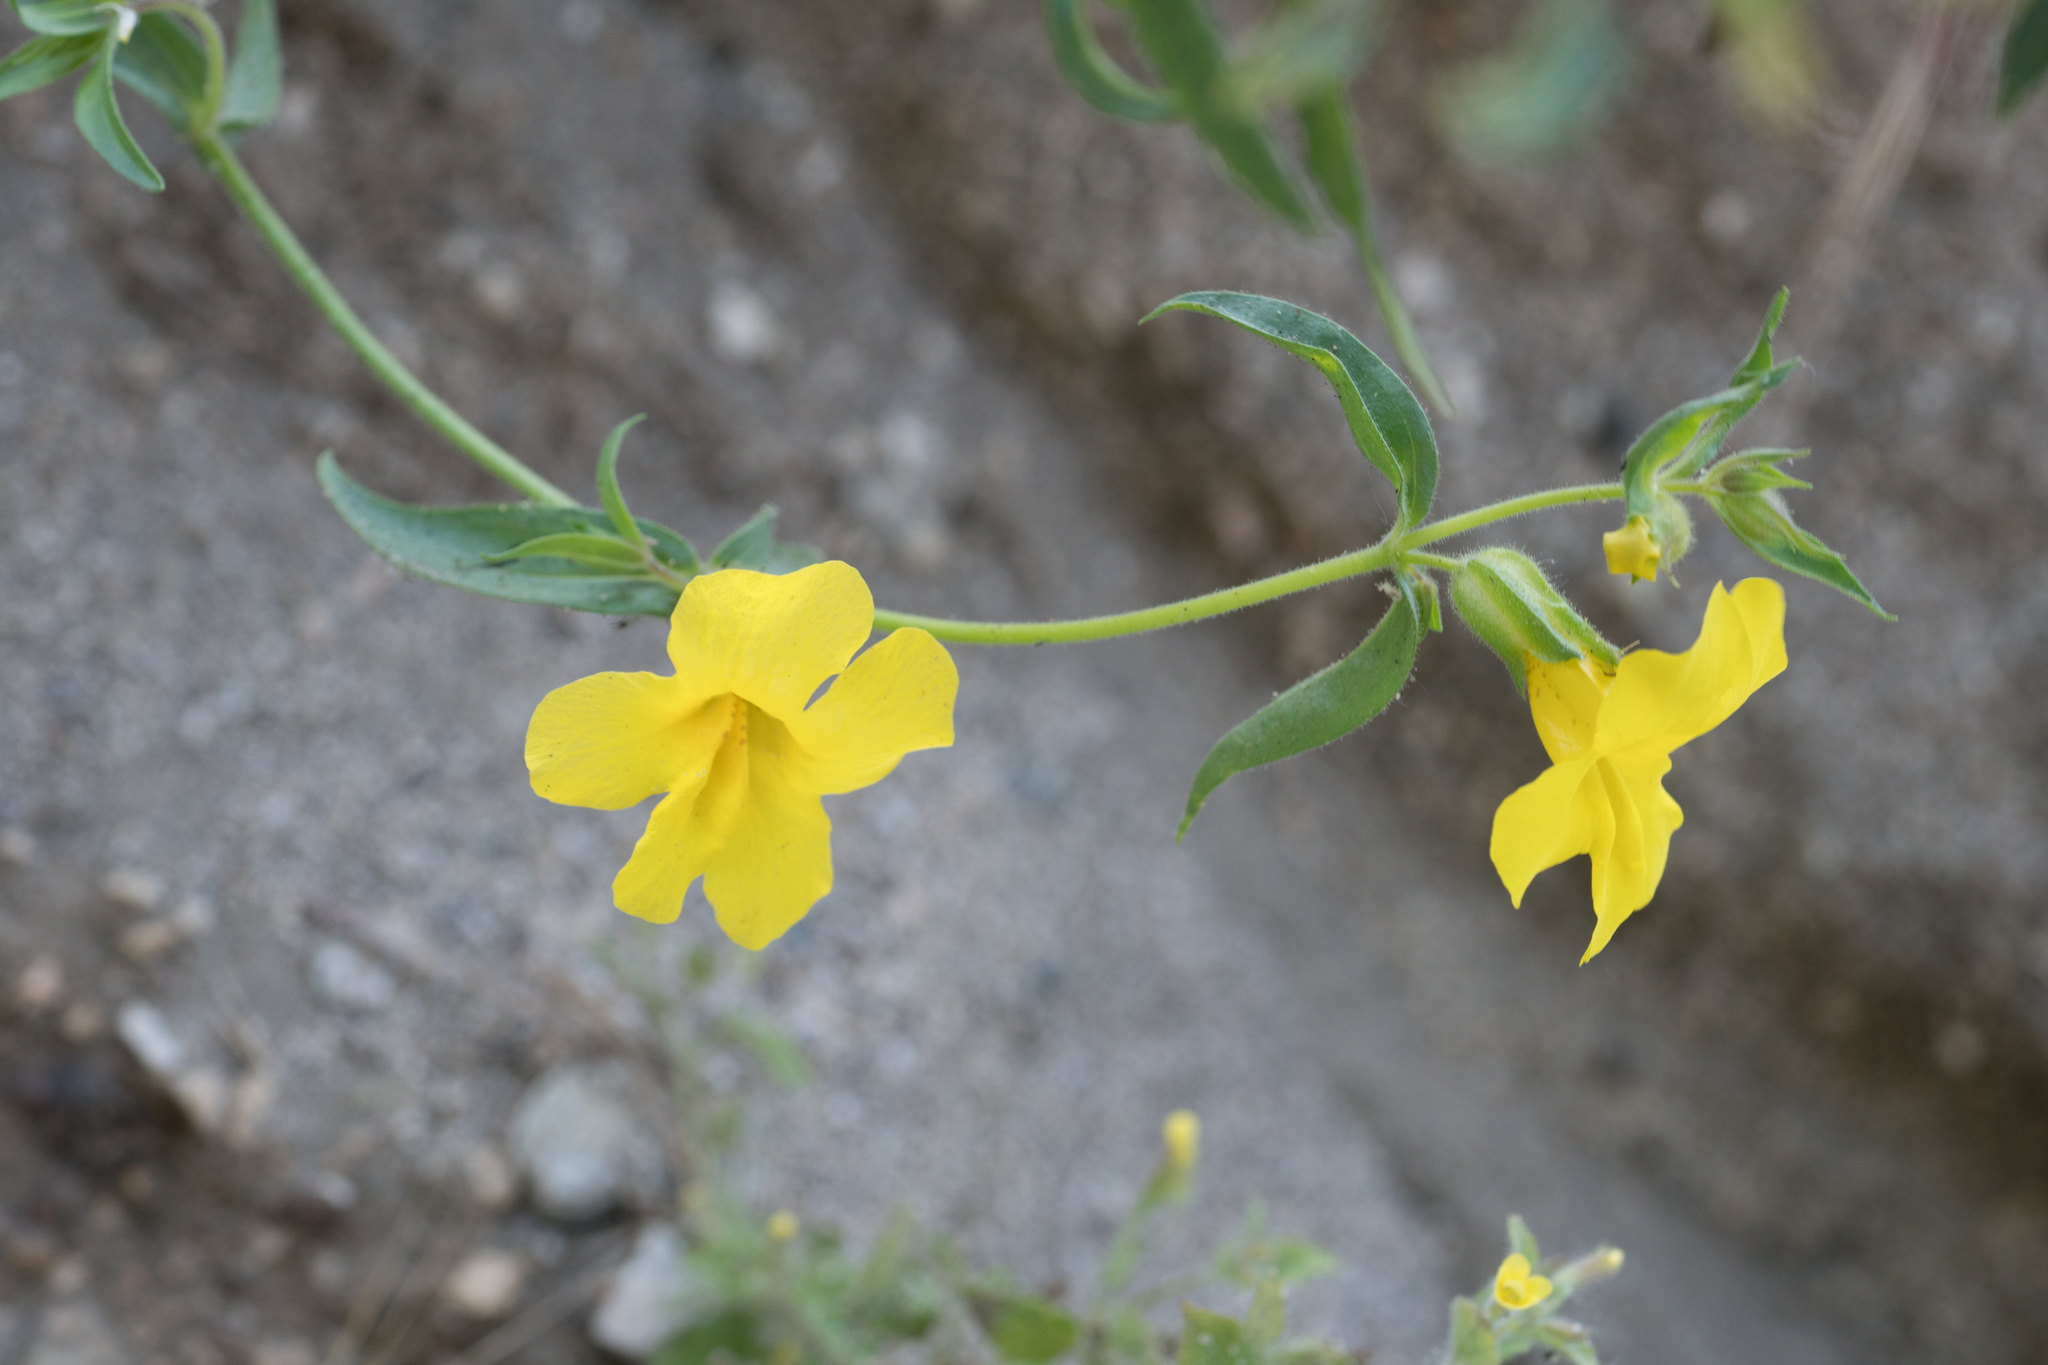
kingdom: Plantae
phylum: Tracheophyta
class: Magnoliopsida
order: Lamiales
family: Phrymaceae
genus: Diplacus
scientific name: Diplacus brevipes
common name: Wide-throat yellow monkey-flower
